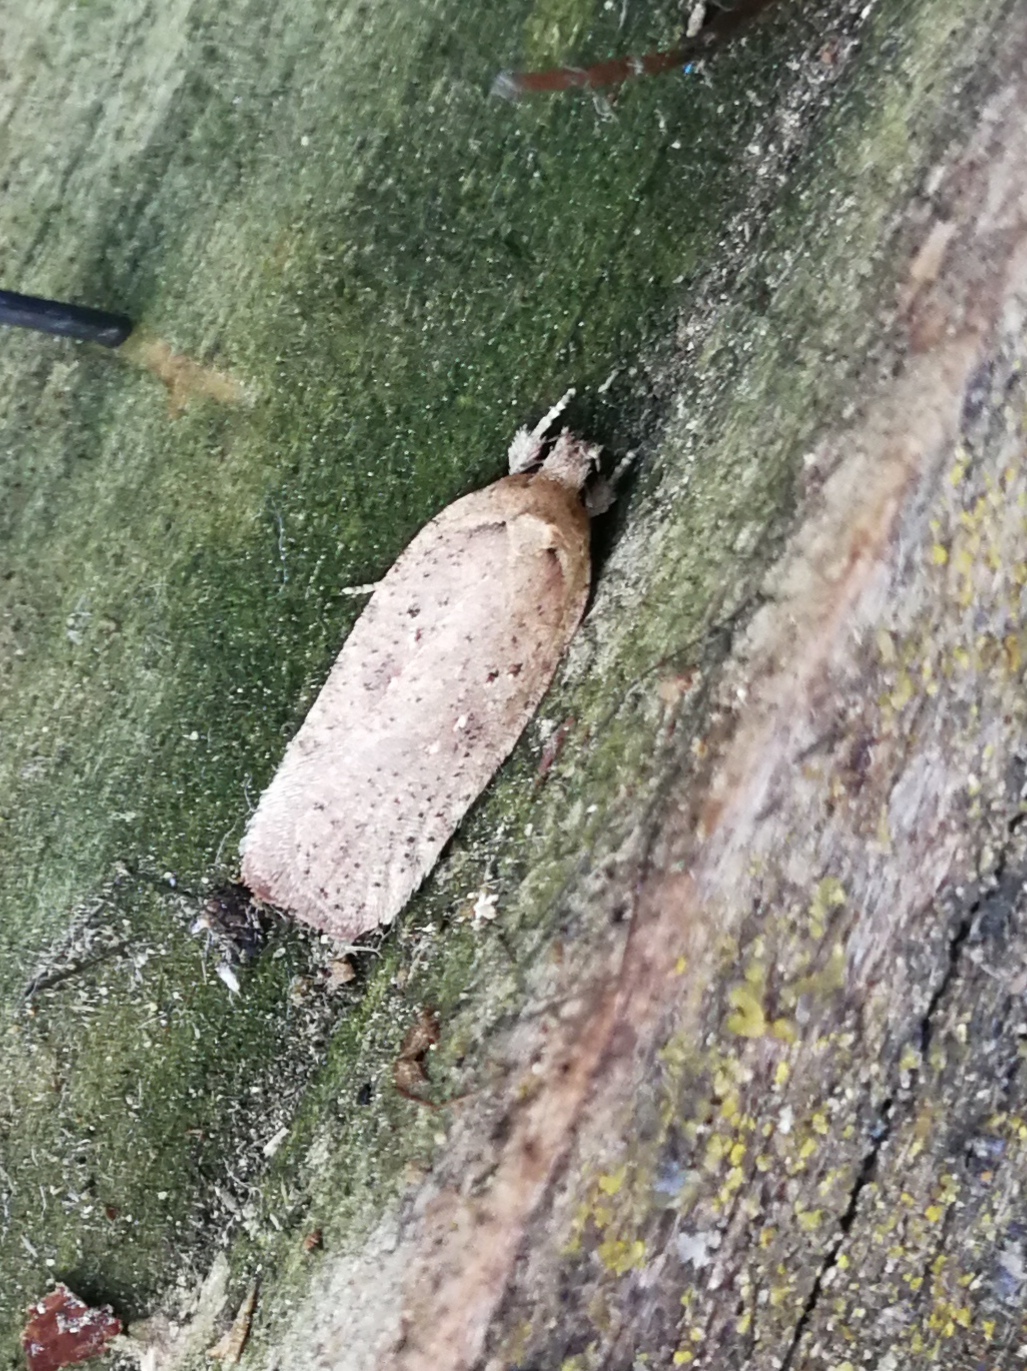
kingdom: Animalia
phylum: Arthropoda
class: Insecta
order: Lepidoptera
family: Depressariidae
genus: Agonopterix
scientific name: Agonopterix yeatiana
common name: Coastal flat-body
